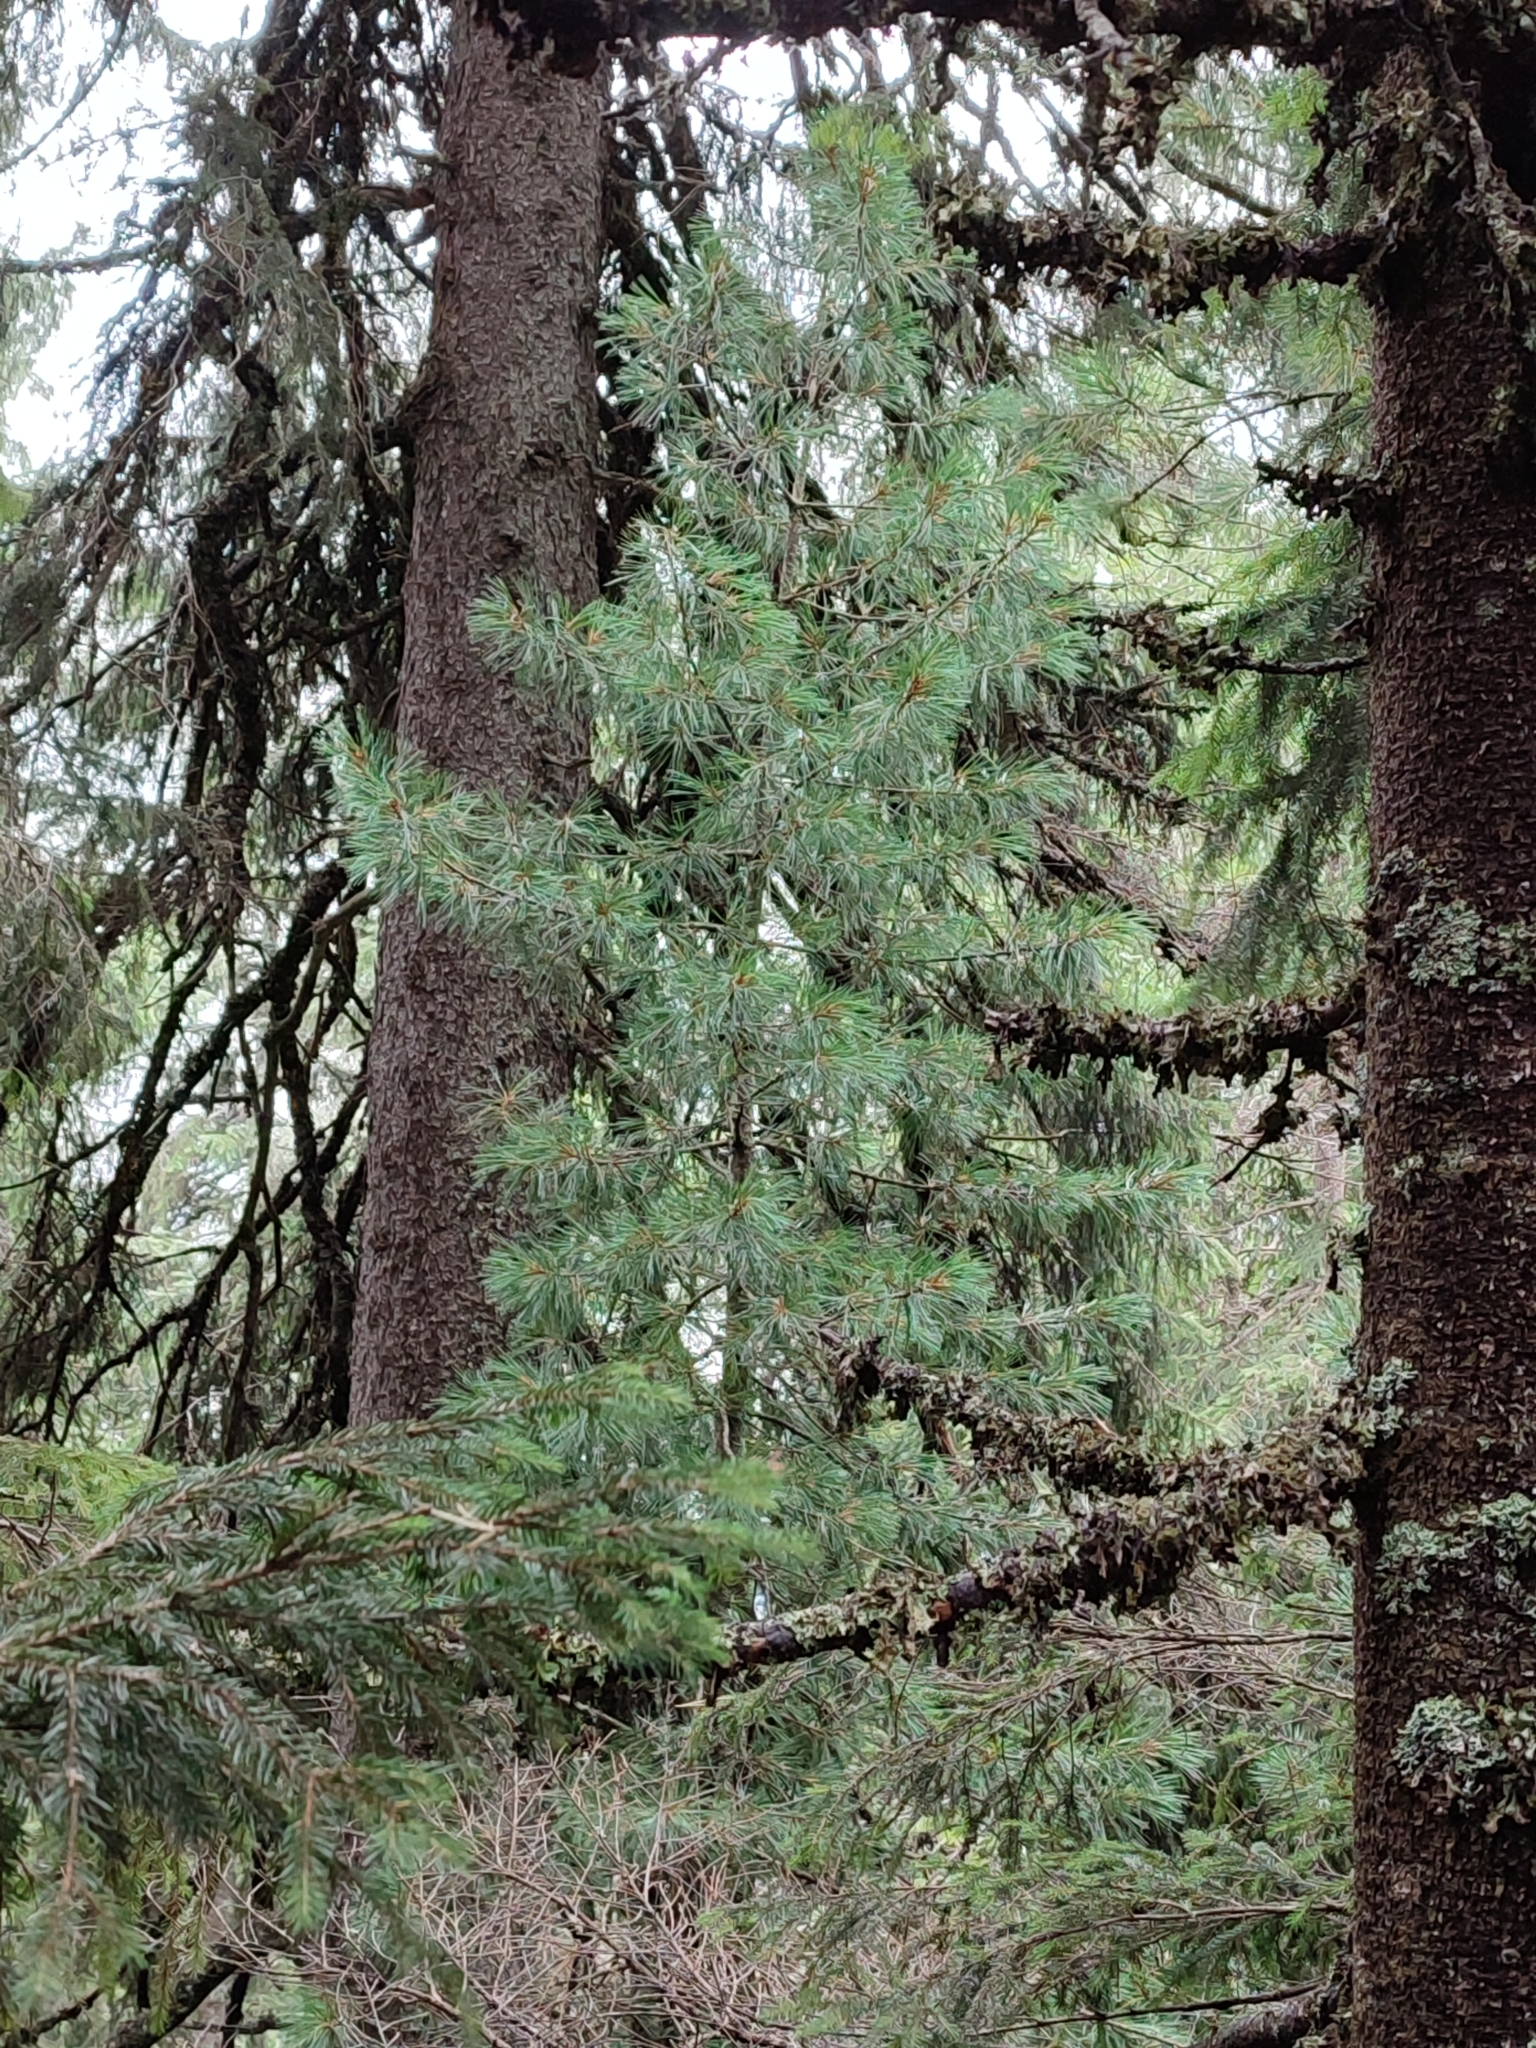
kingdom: Plantae
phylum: Tracheophyta
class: Pinopsida
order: Pinales
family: Pinaceae
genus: Pinus
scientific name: Pinus cembra
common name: Arolla pine
